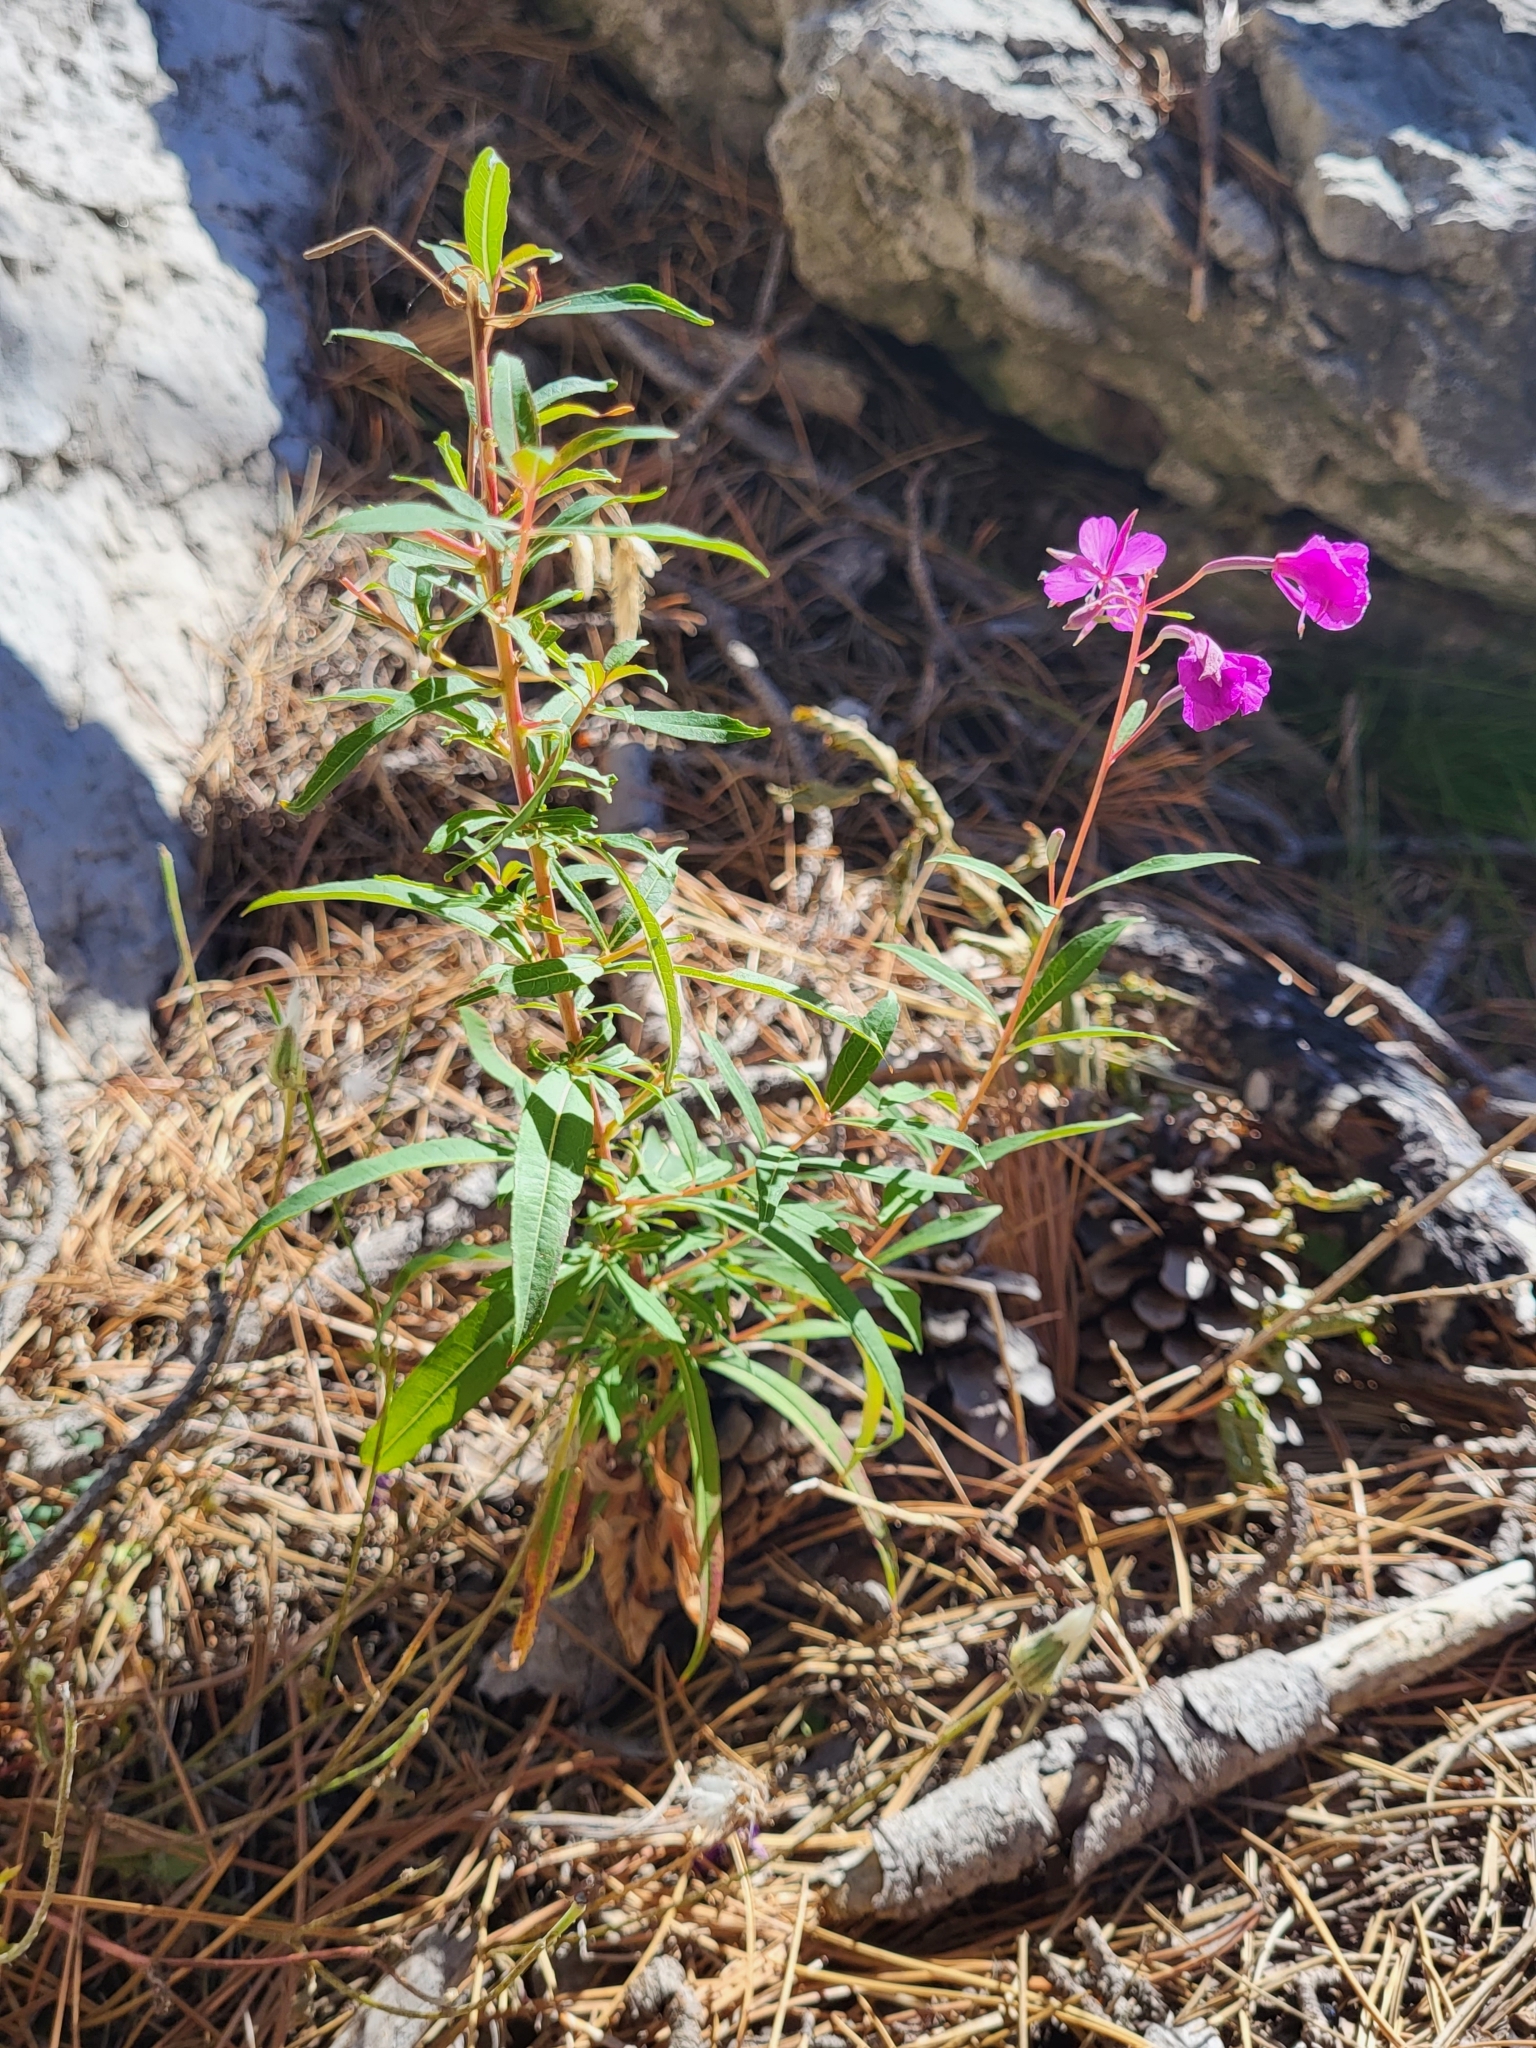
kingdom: Plantae
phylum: Tracheophyta
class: Magnoliopsida
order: Myrtales
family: Onagraceae
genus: Chamaenerion
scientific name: Chamaenerion angustifolium
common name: Fireweed
